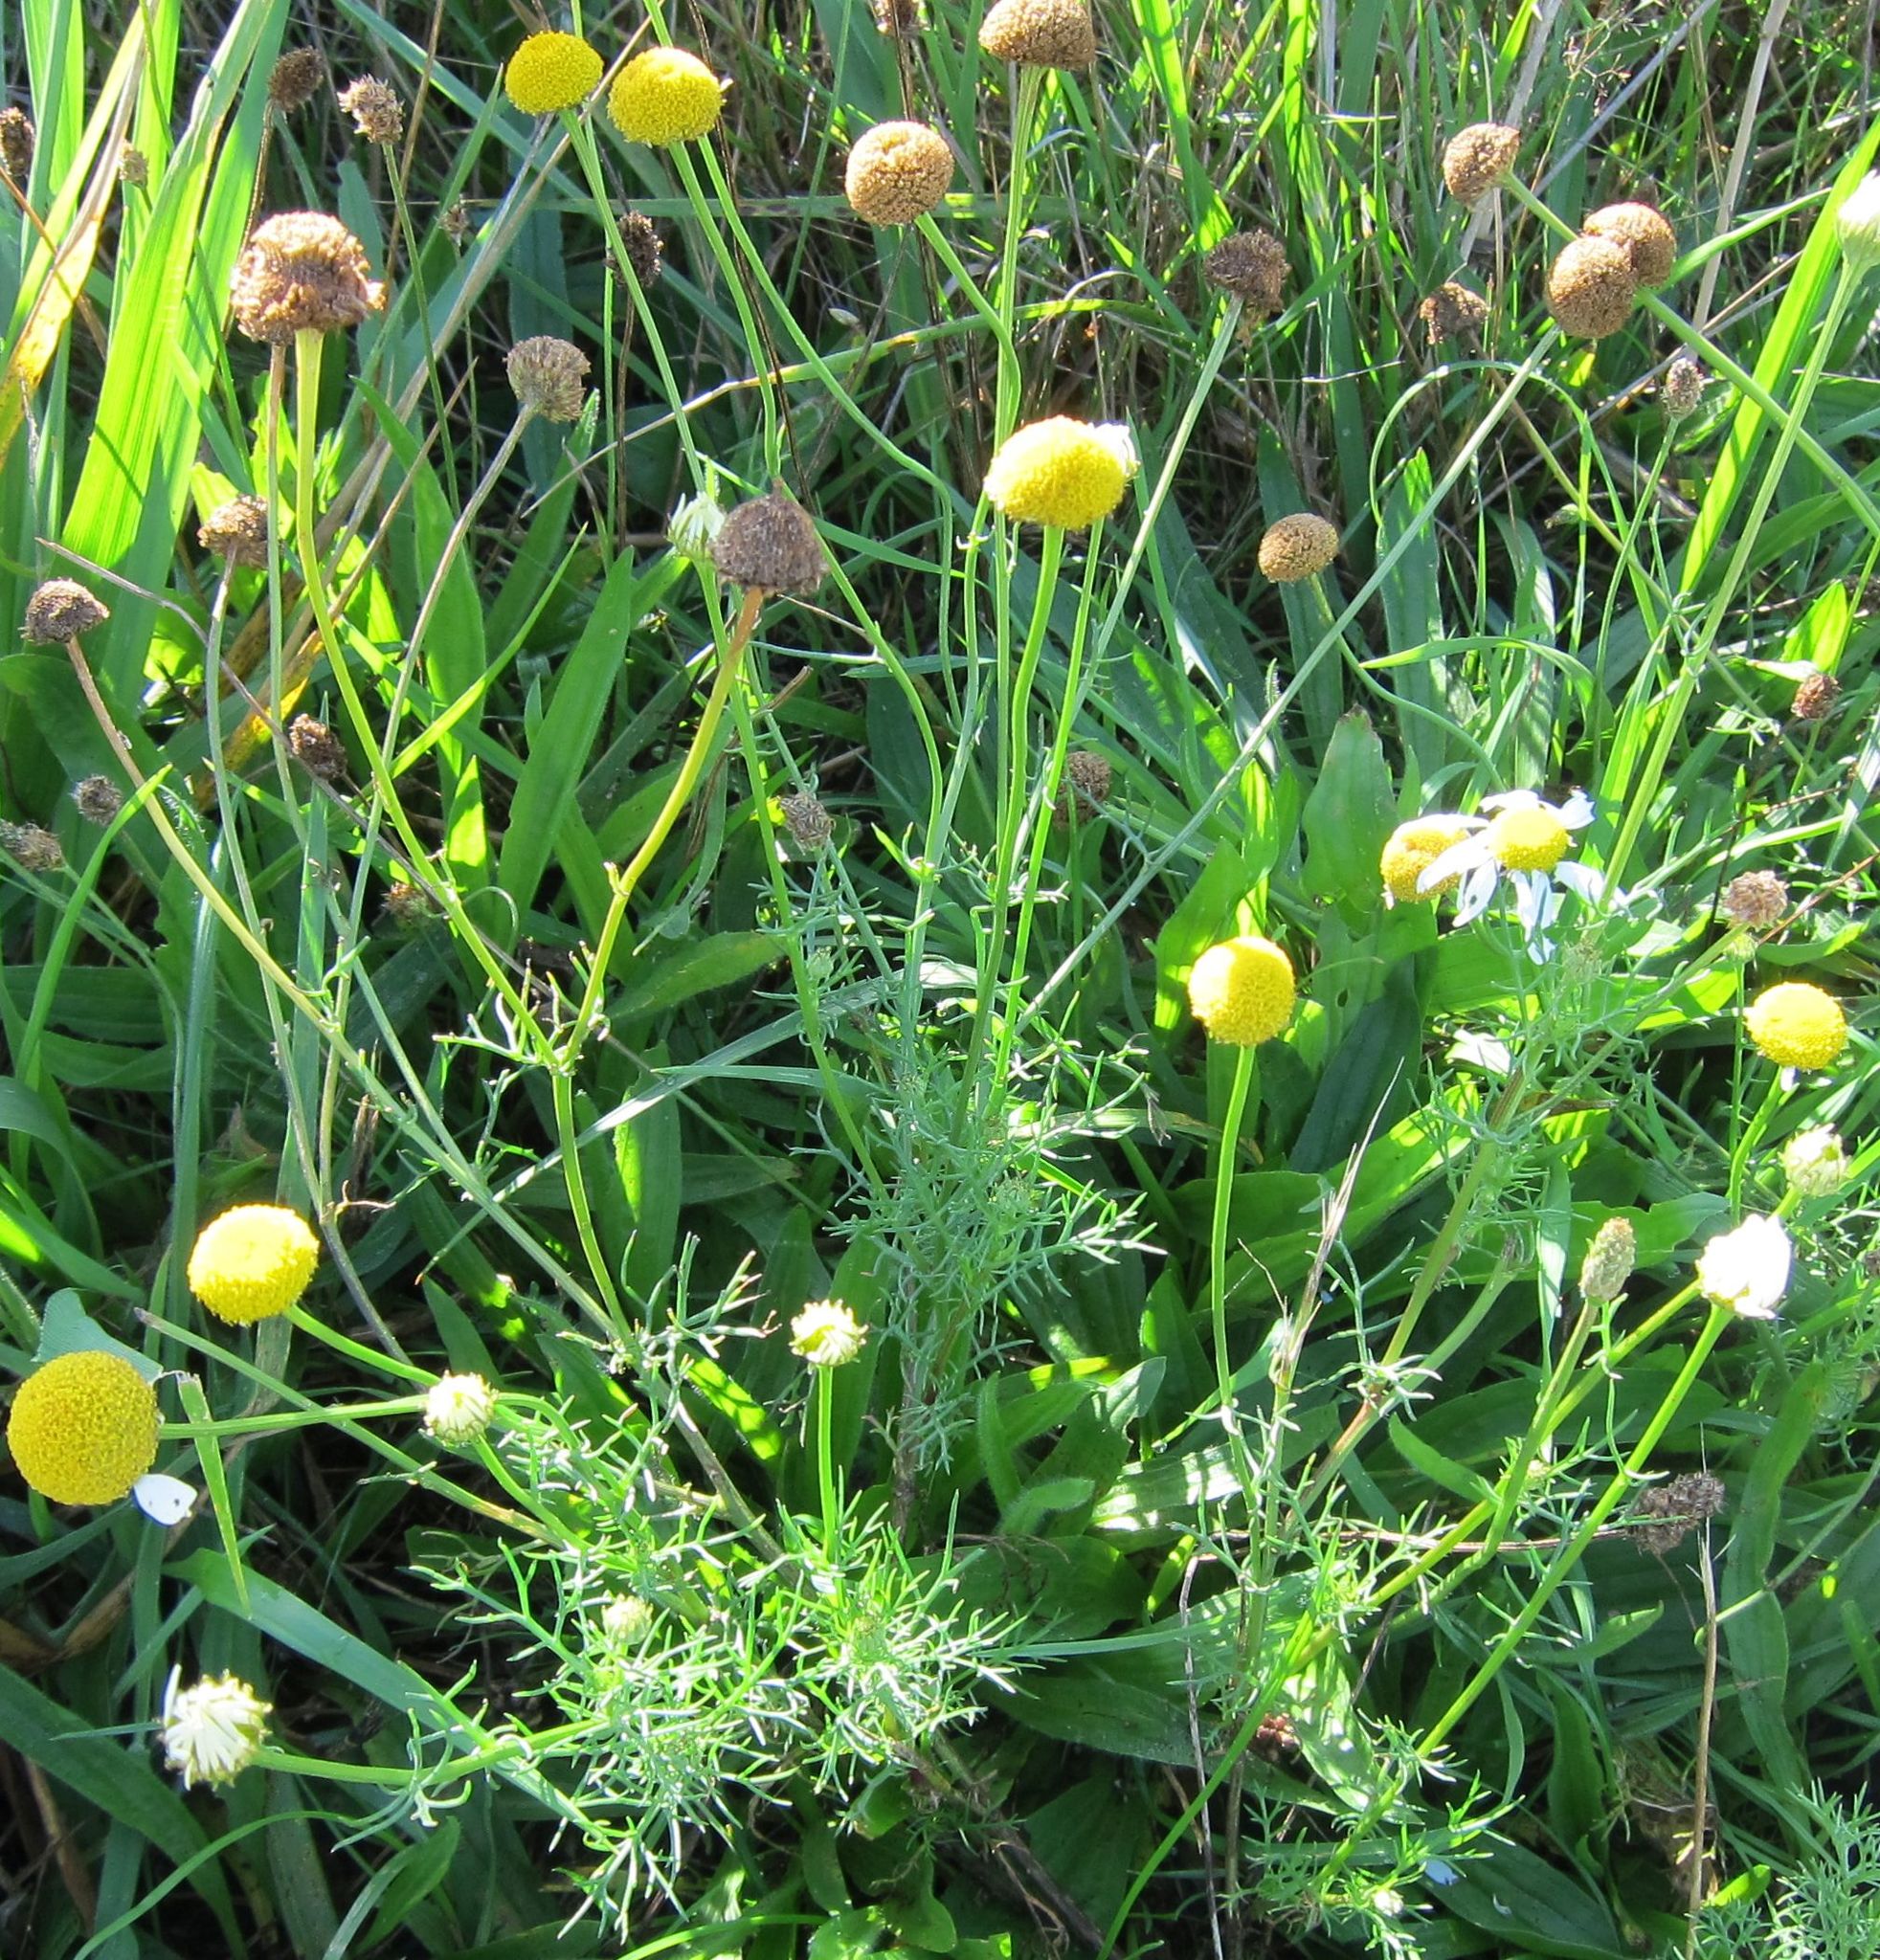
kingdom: Plantae
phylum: Tracheophyta
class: Magnoliopsida
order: Asterales
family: Asteraceae
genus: Tripleurospermum
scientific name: Tripleurospermum inodorum
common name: Scentless mayweed
